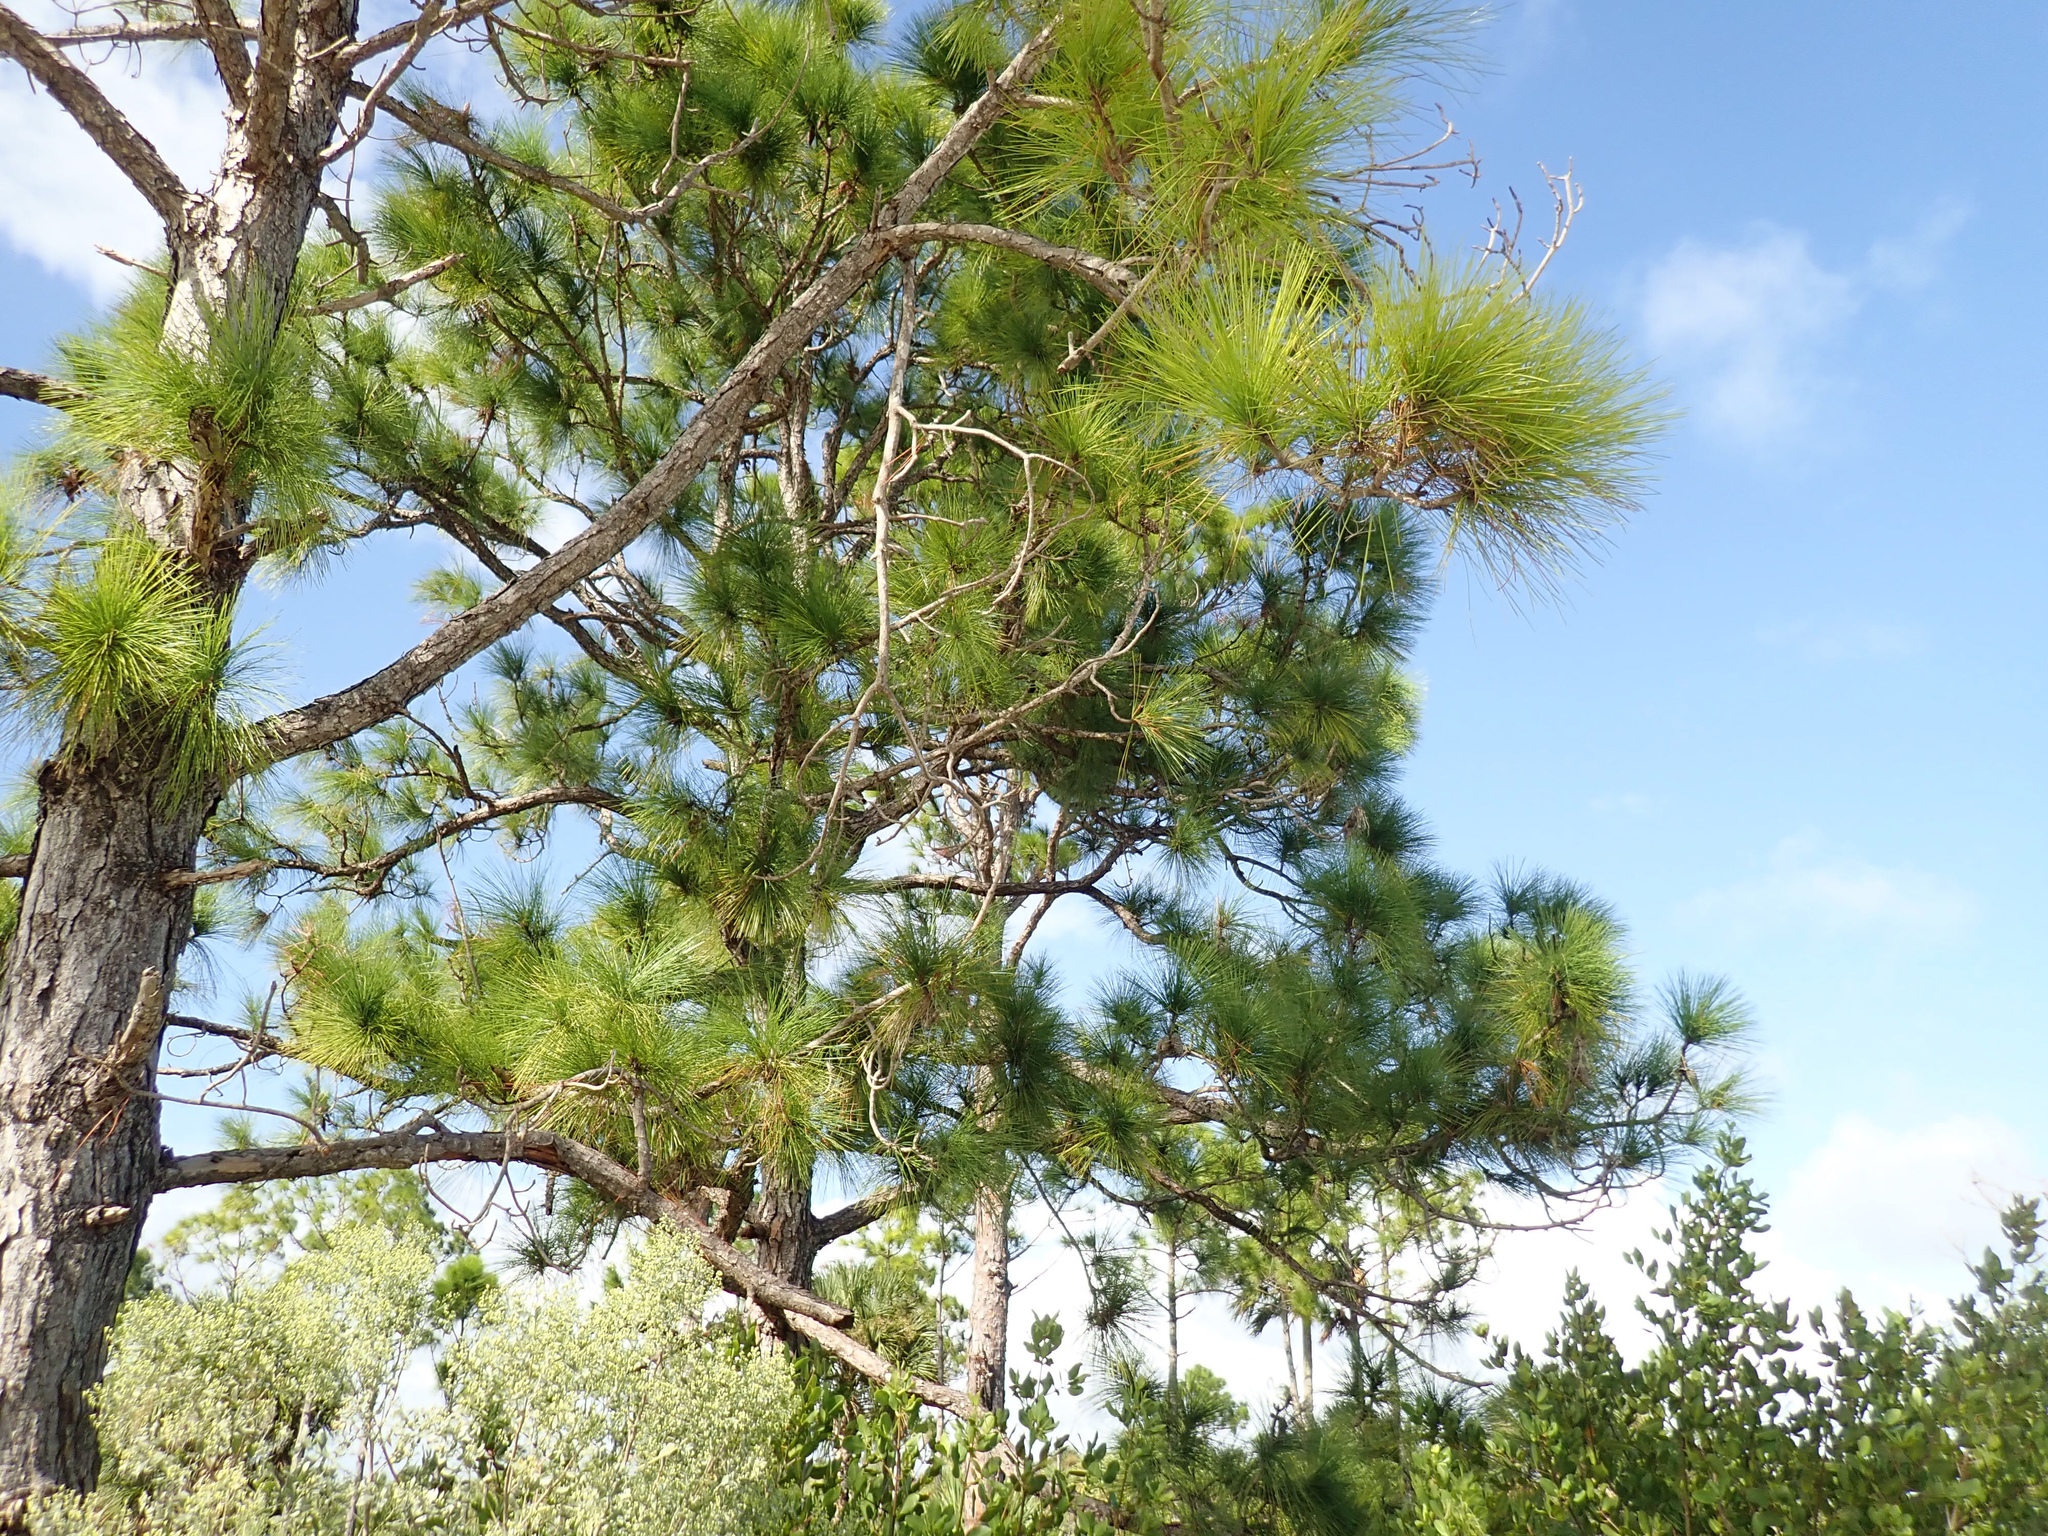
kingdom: Plantae
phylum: Tracheophyta
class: Pinopsida
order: Pinales
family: Pinaceae
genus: Pinus
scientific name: Pinus elliottii
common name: Slash pine
